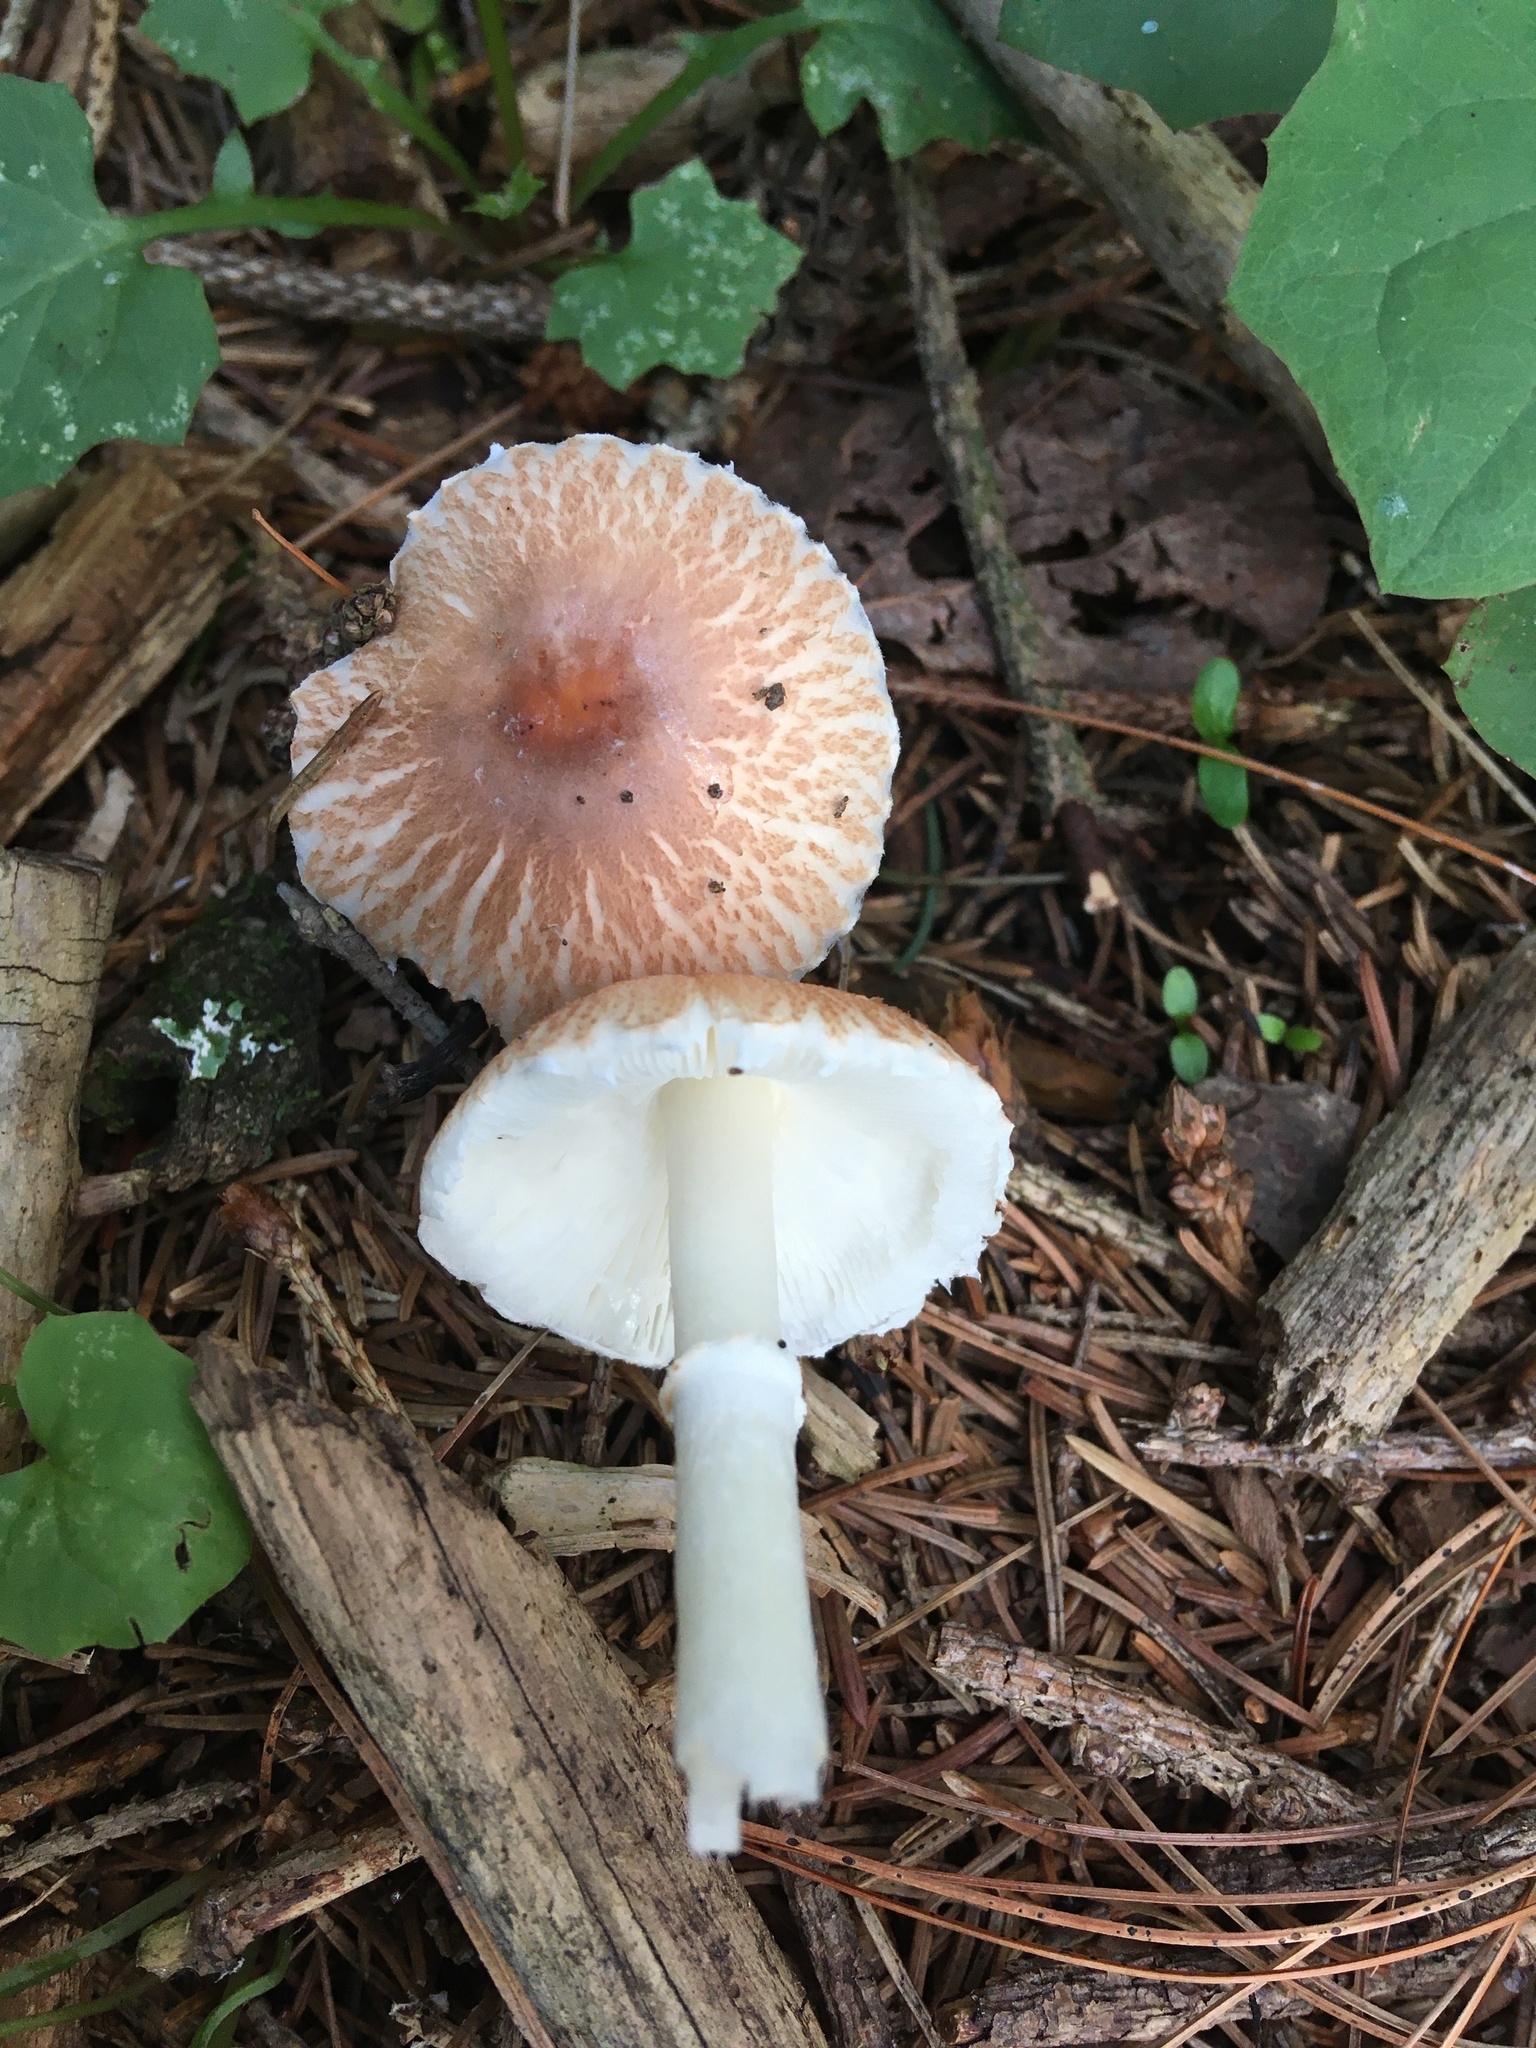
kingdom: Fungi
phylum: Basidiomycota
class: Agaricomycetes
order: Agaricales
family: Agaricaceae
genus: Leucoagaricus
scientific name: Leucoagaricus rubrotinctus
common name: Ruby dapperling
